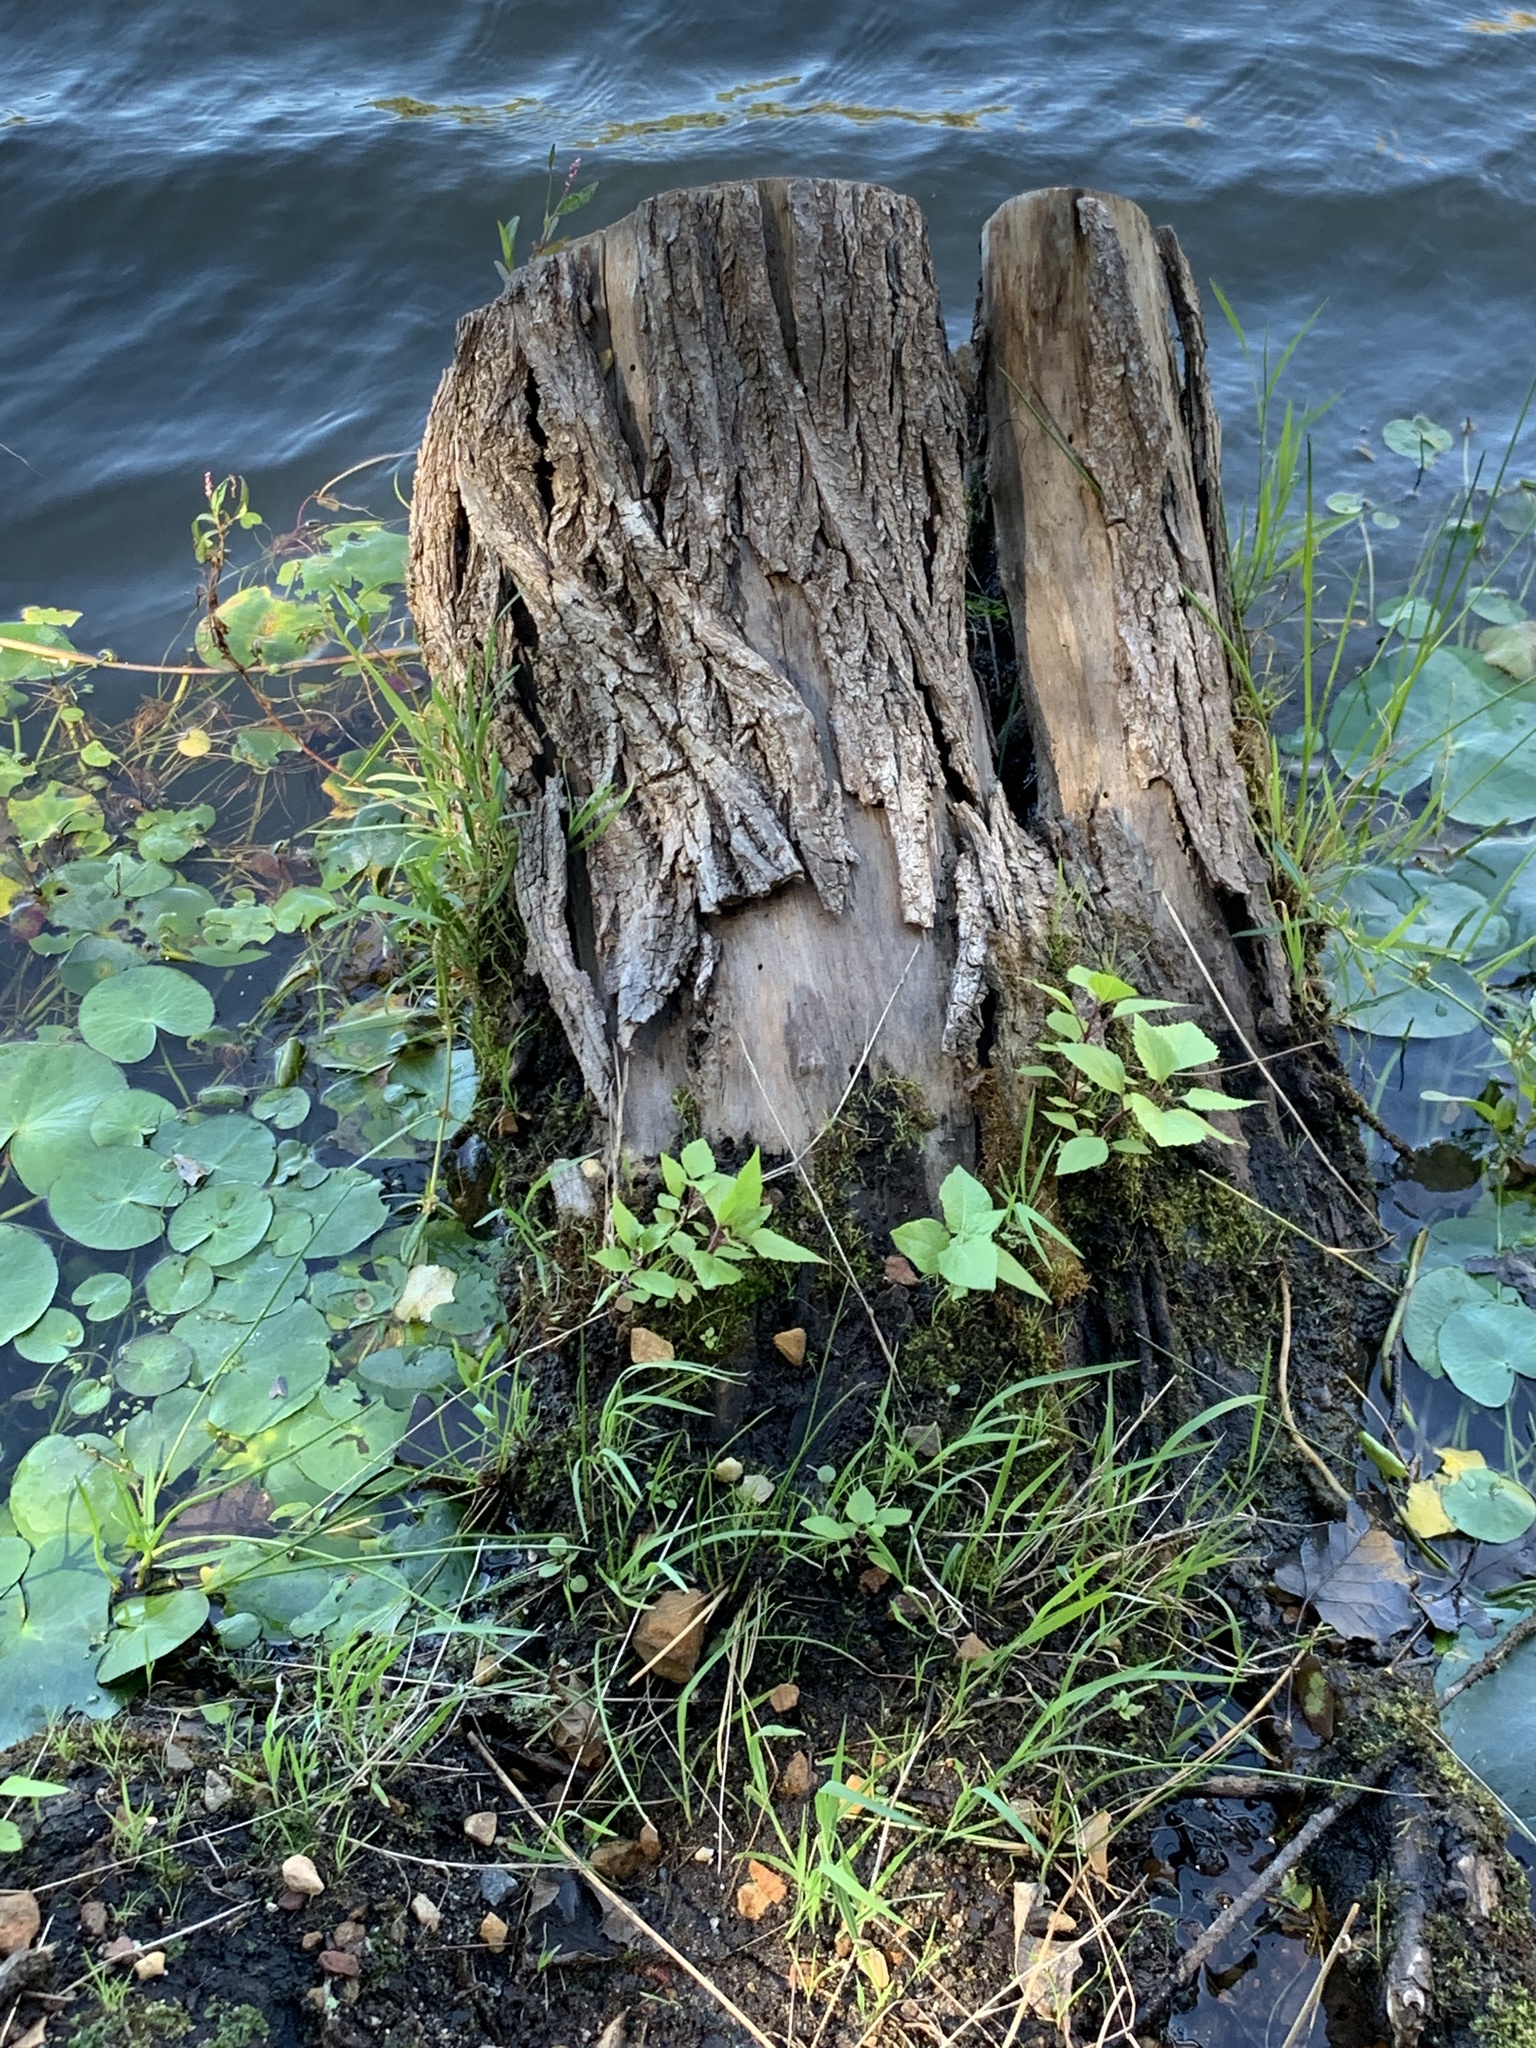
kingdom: Plantae
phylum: Tracheophyta
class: Magnoliopsida
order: Asterales
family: Asteraceae
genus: Ageratina
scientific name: Ageratina adenophora
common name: Sticky snakeroot
